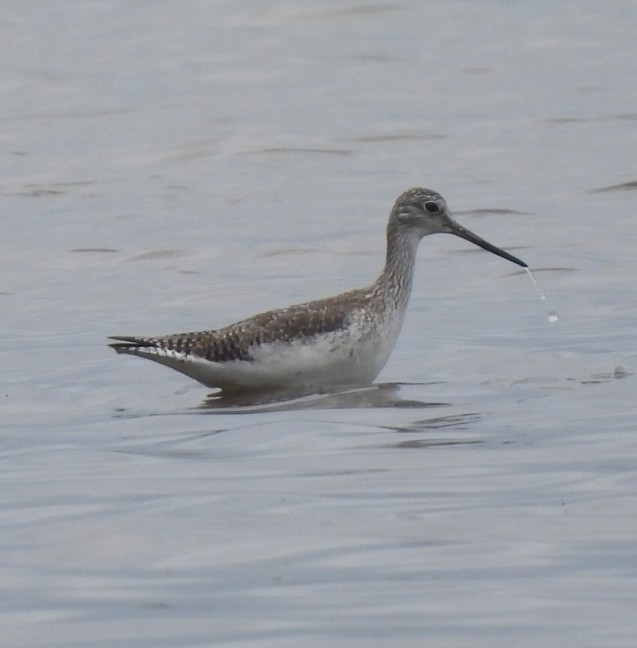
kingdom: Animalia
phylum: Chordata
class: Aves
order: Charadriiformes
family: Scolopacidae
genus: Tringa
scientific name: Tringa melanoleuca
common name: Greater yellowlegs
